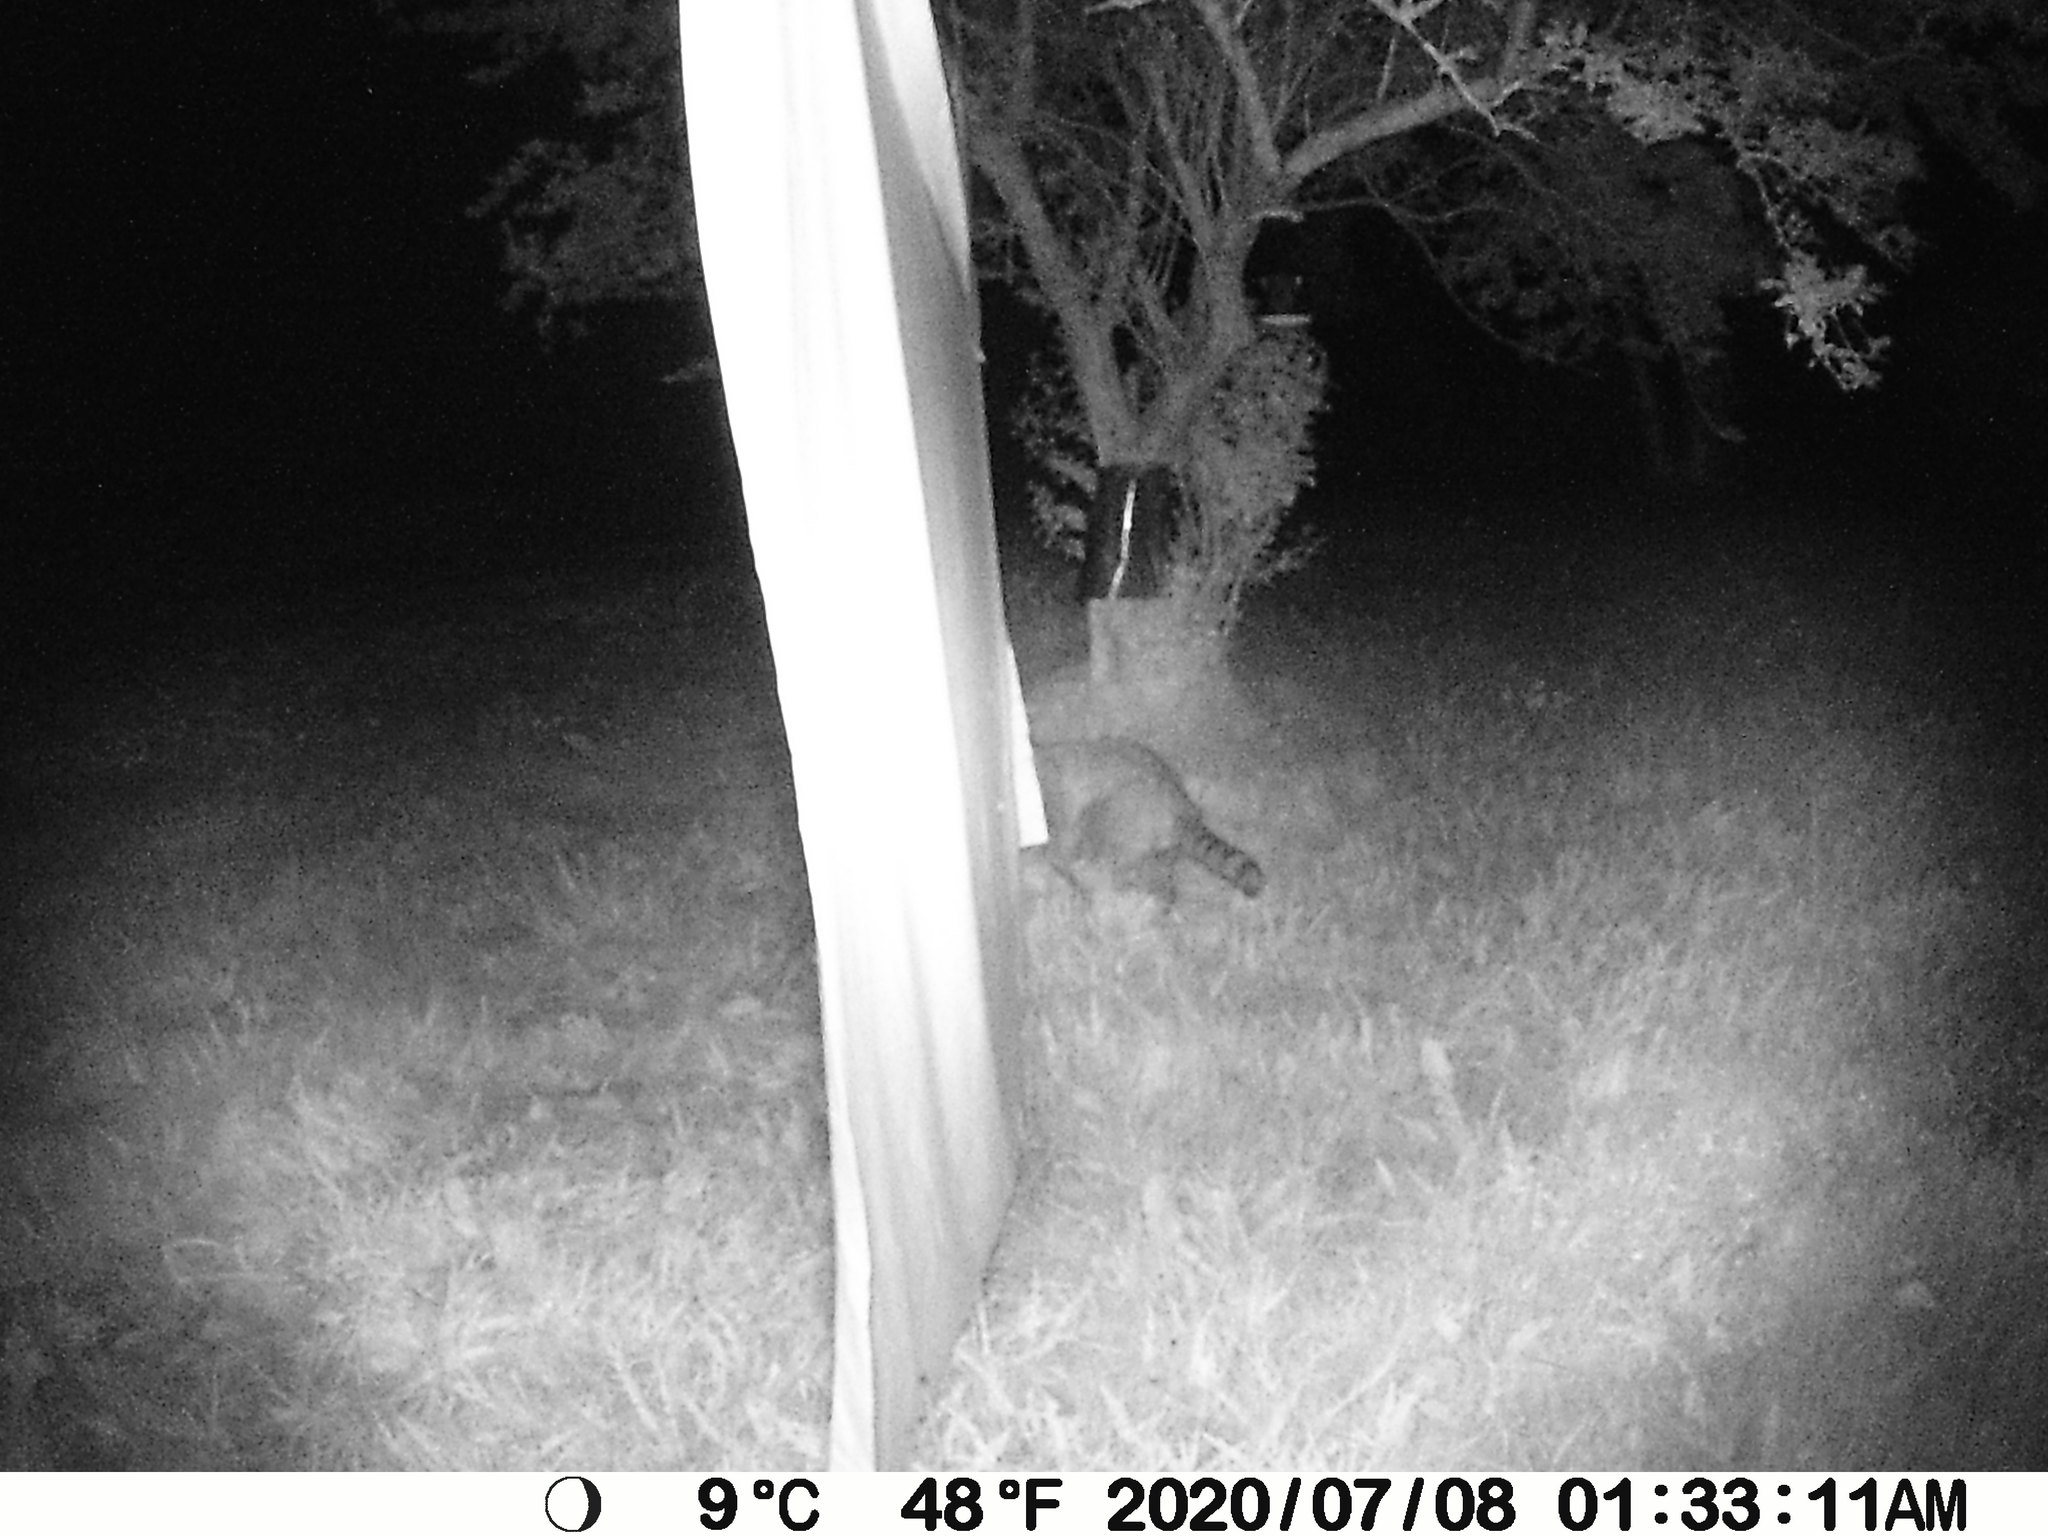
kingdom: Animalia
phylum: Chordata
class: Mammalia
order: Carnivora
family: Procyonidae
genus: Procyon
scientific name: Procyon lotor
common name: Raccoon
